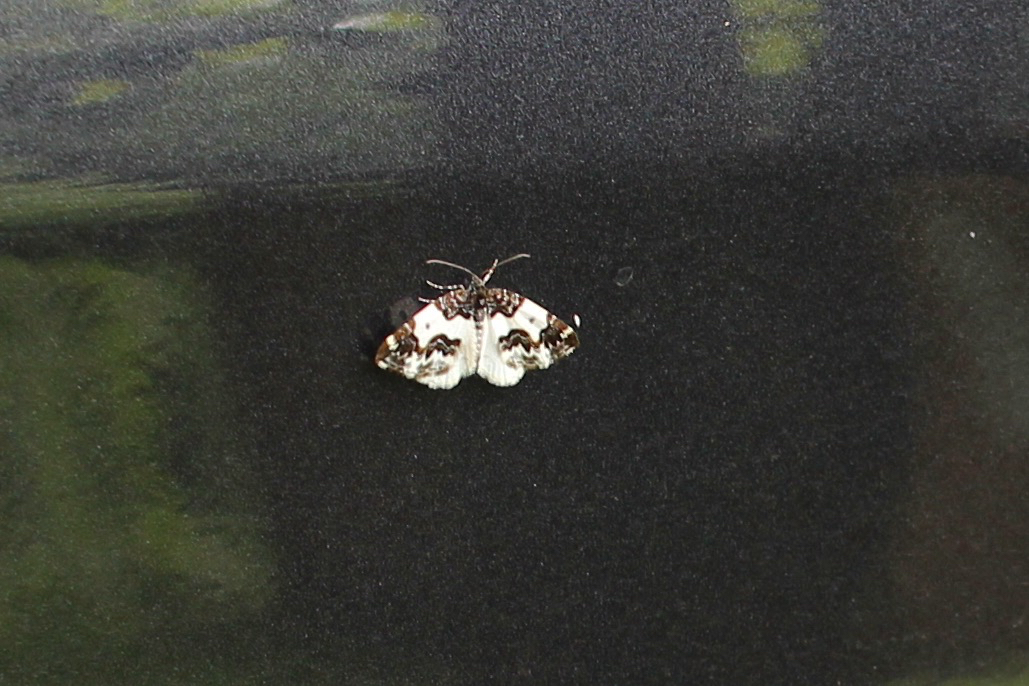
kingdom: Animalia
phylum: Arthropoda
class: Insecta
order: Lepidoptera
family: Geometridae
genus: Mesoleuca
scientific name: Mesoleuca gratulata
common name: Half-white carpet moth
